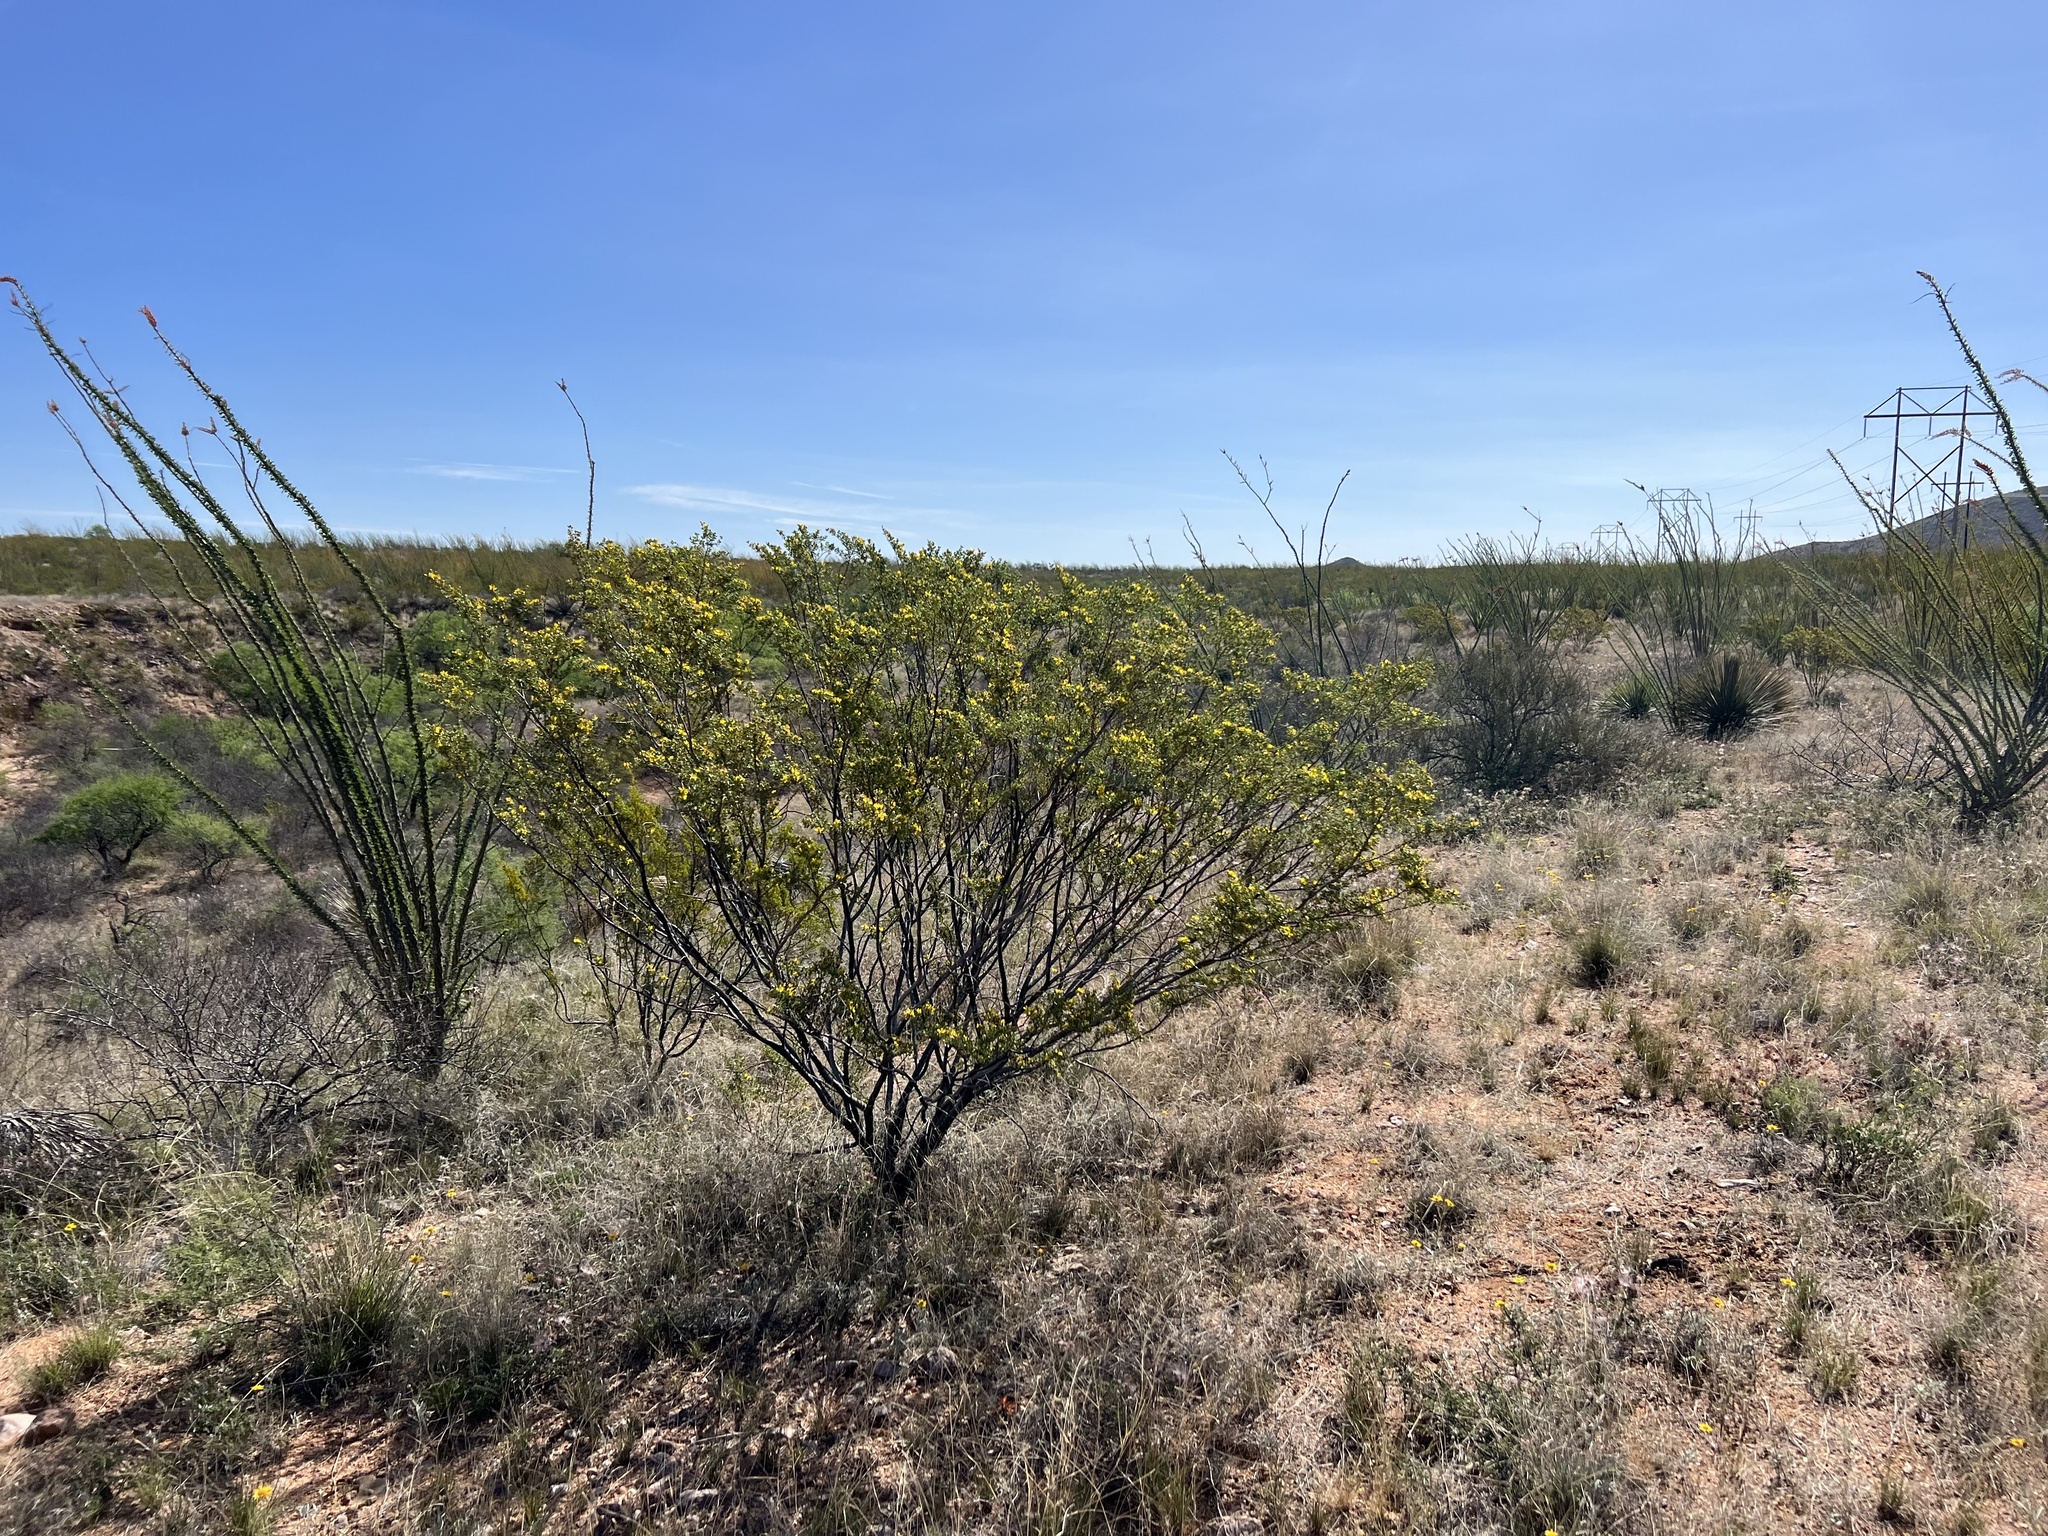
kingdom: Plantae
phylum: Tracheophyta
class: Magnoliopsida
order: Zygophyllales
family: Zygophyllaceae
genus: Larrea
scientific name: Larrea tridentata
